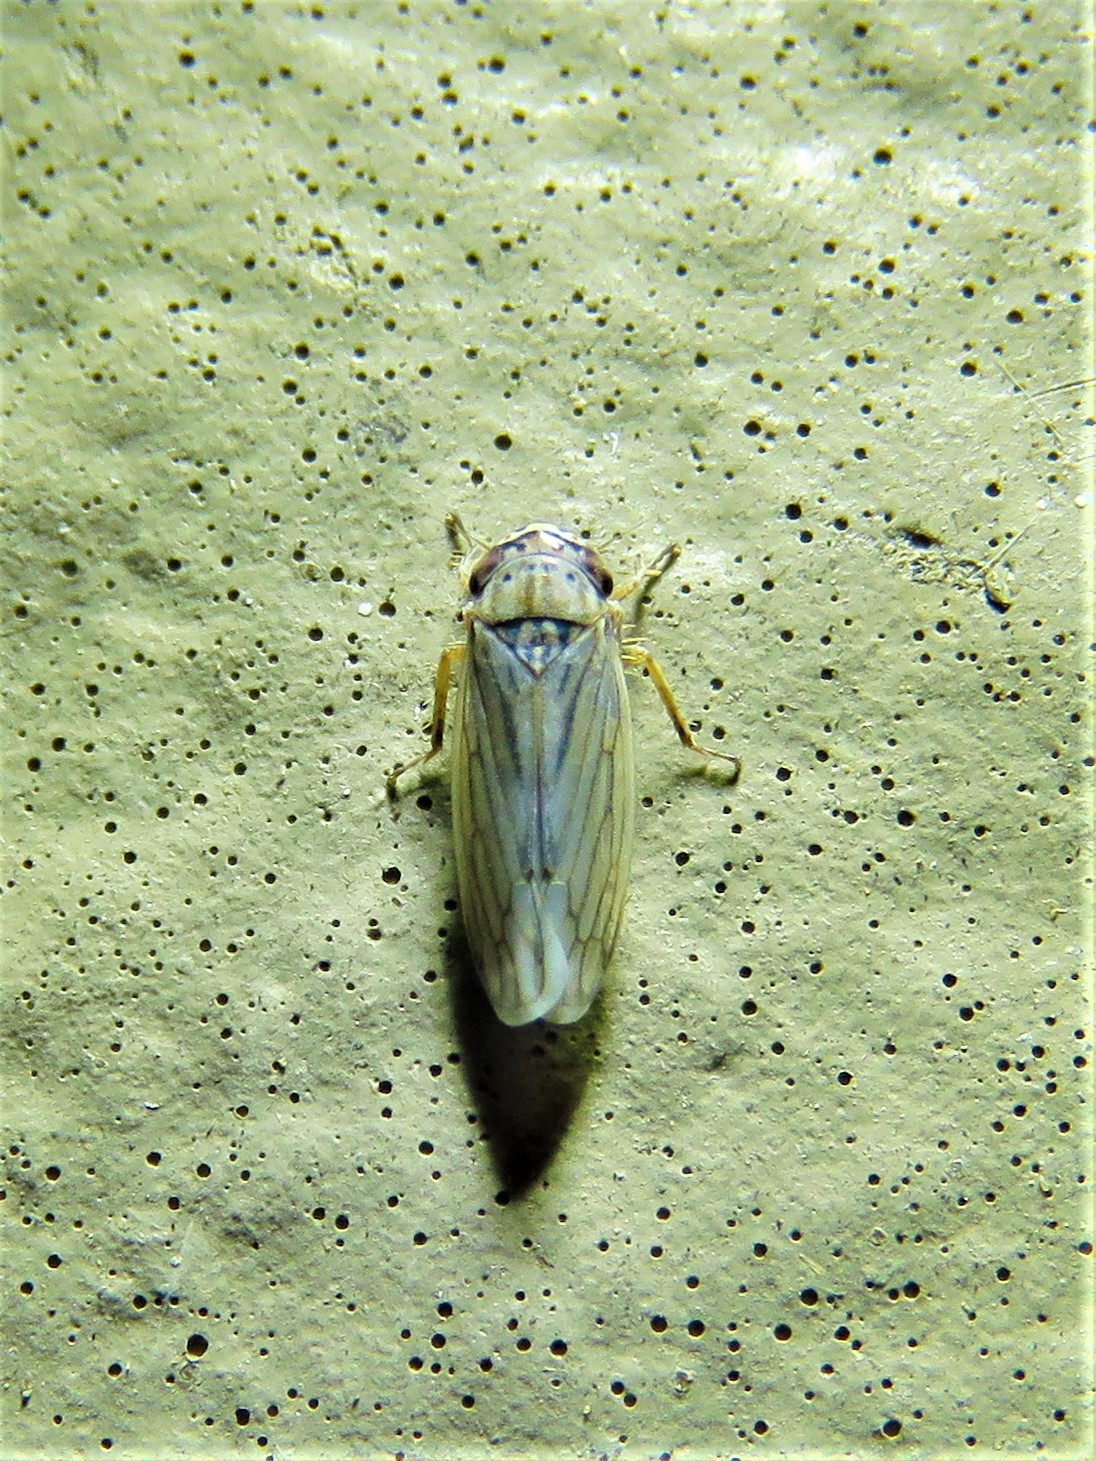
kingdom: Animalia
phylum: Arthropoda
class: Insecta
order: Hemiptera
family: Cicadellidae
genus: Exitianus
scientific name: Exitianus exitiosus
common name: Gray lawn leafhopper
